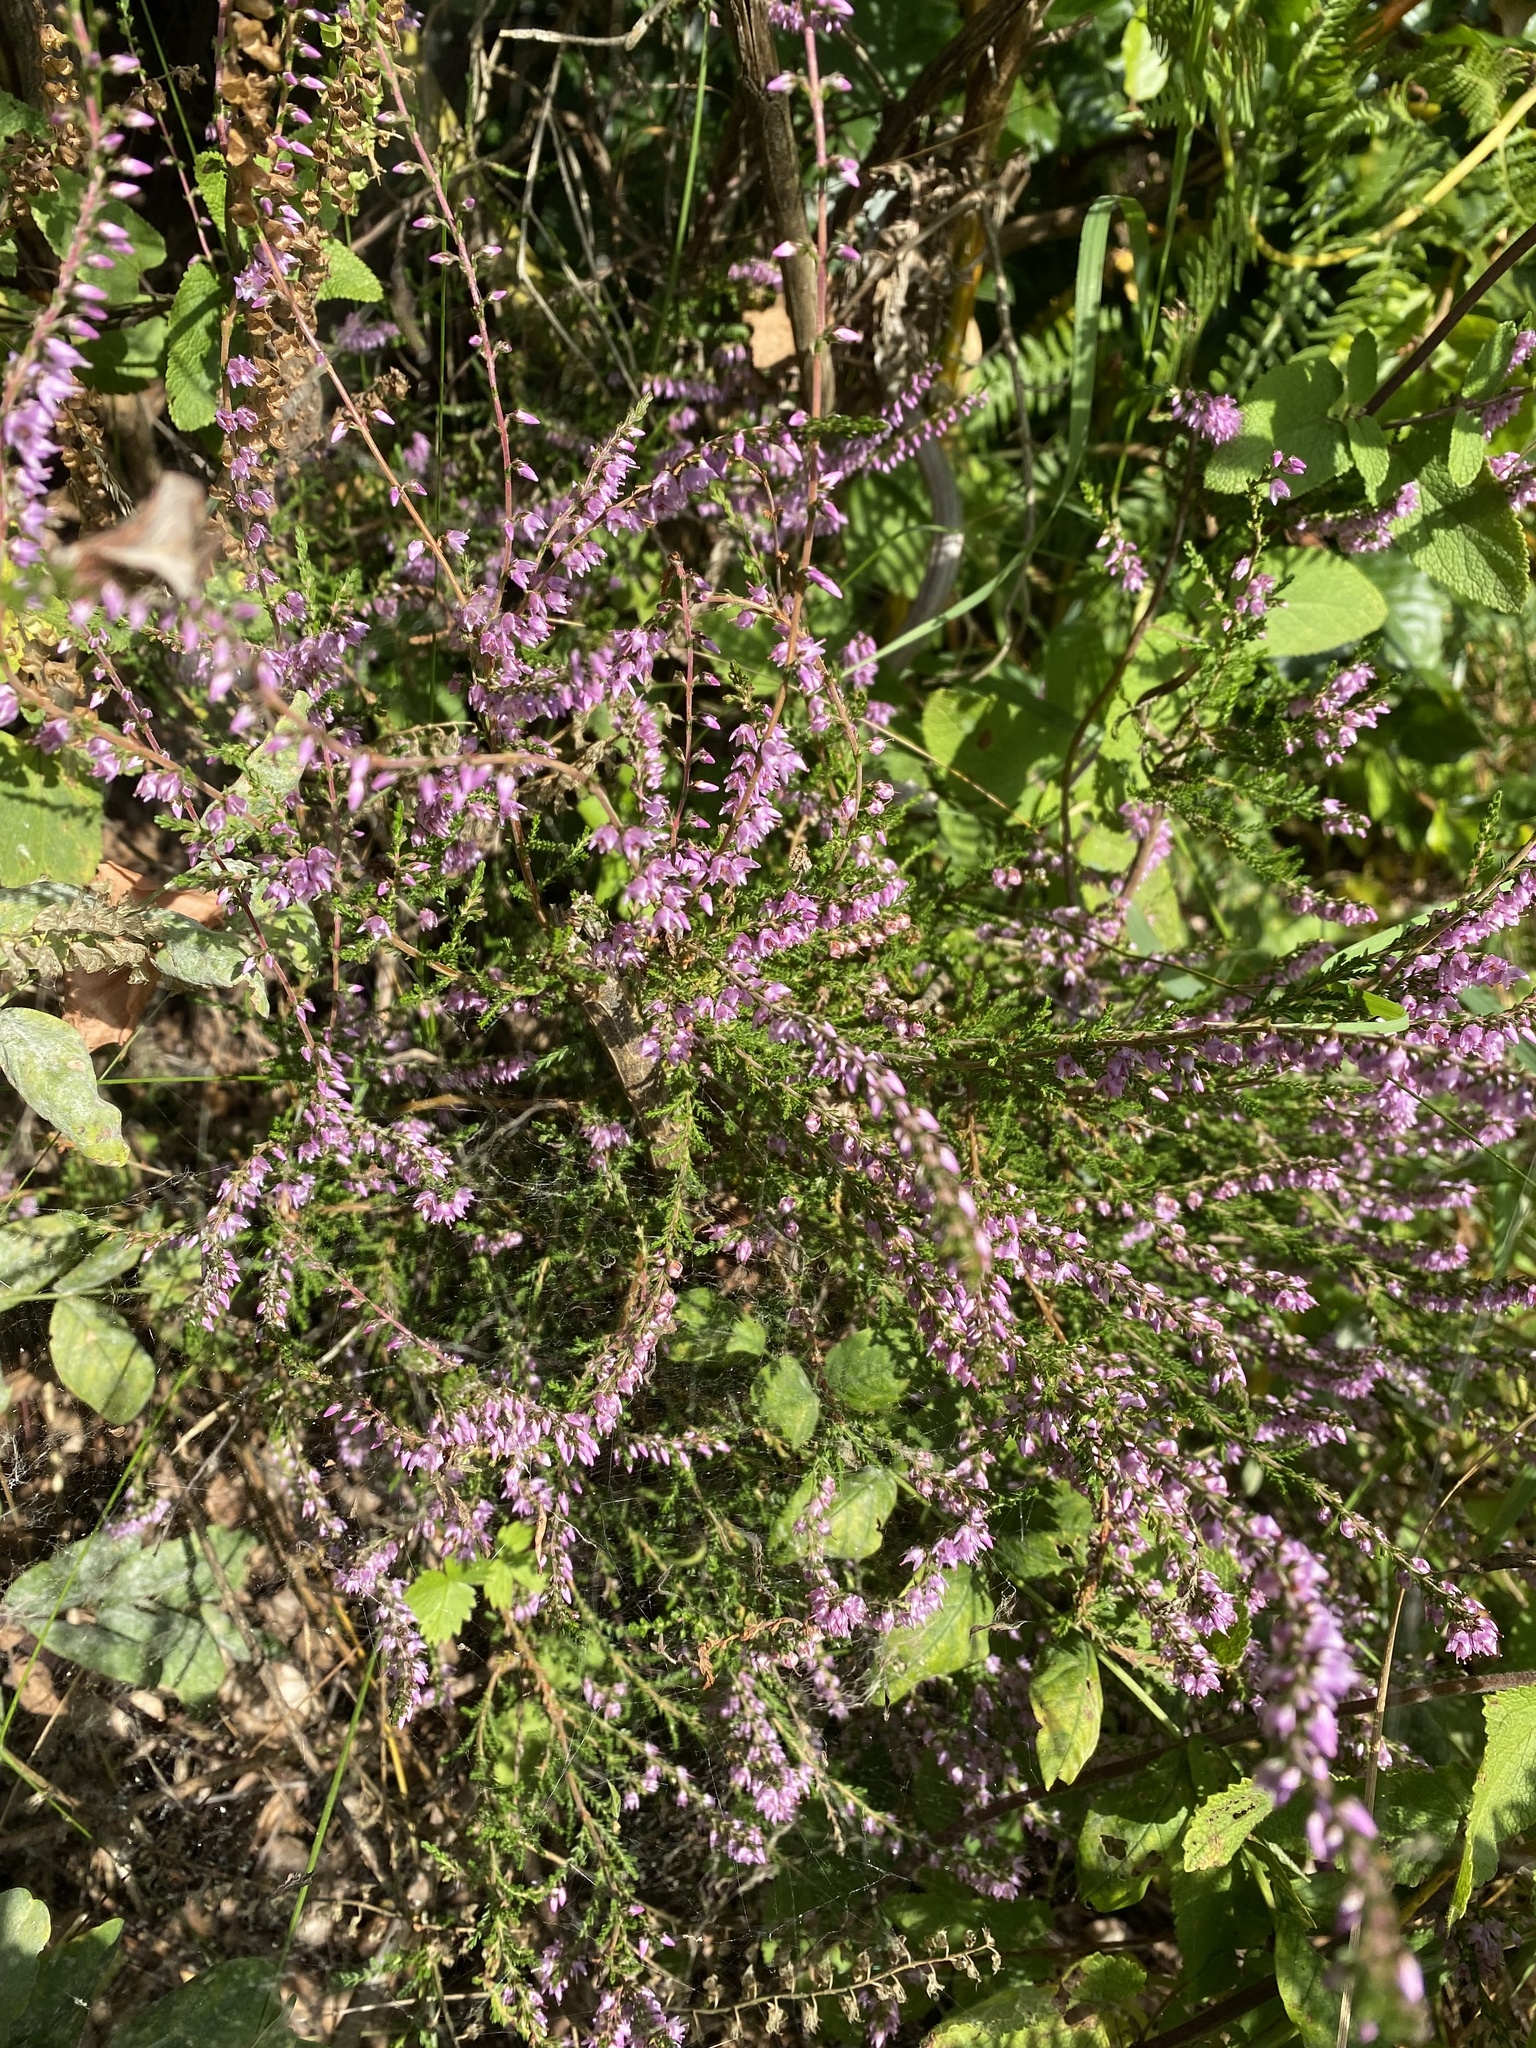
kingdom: Plantae
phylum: Tracheophyta
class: Magnoliopsida
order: Ericales
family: Ericaceae
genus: Calluna
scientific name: Calluna vulgaris
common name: Heather
